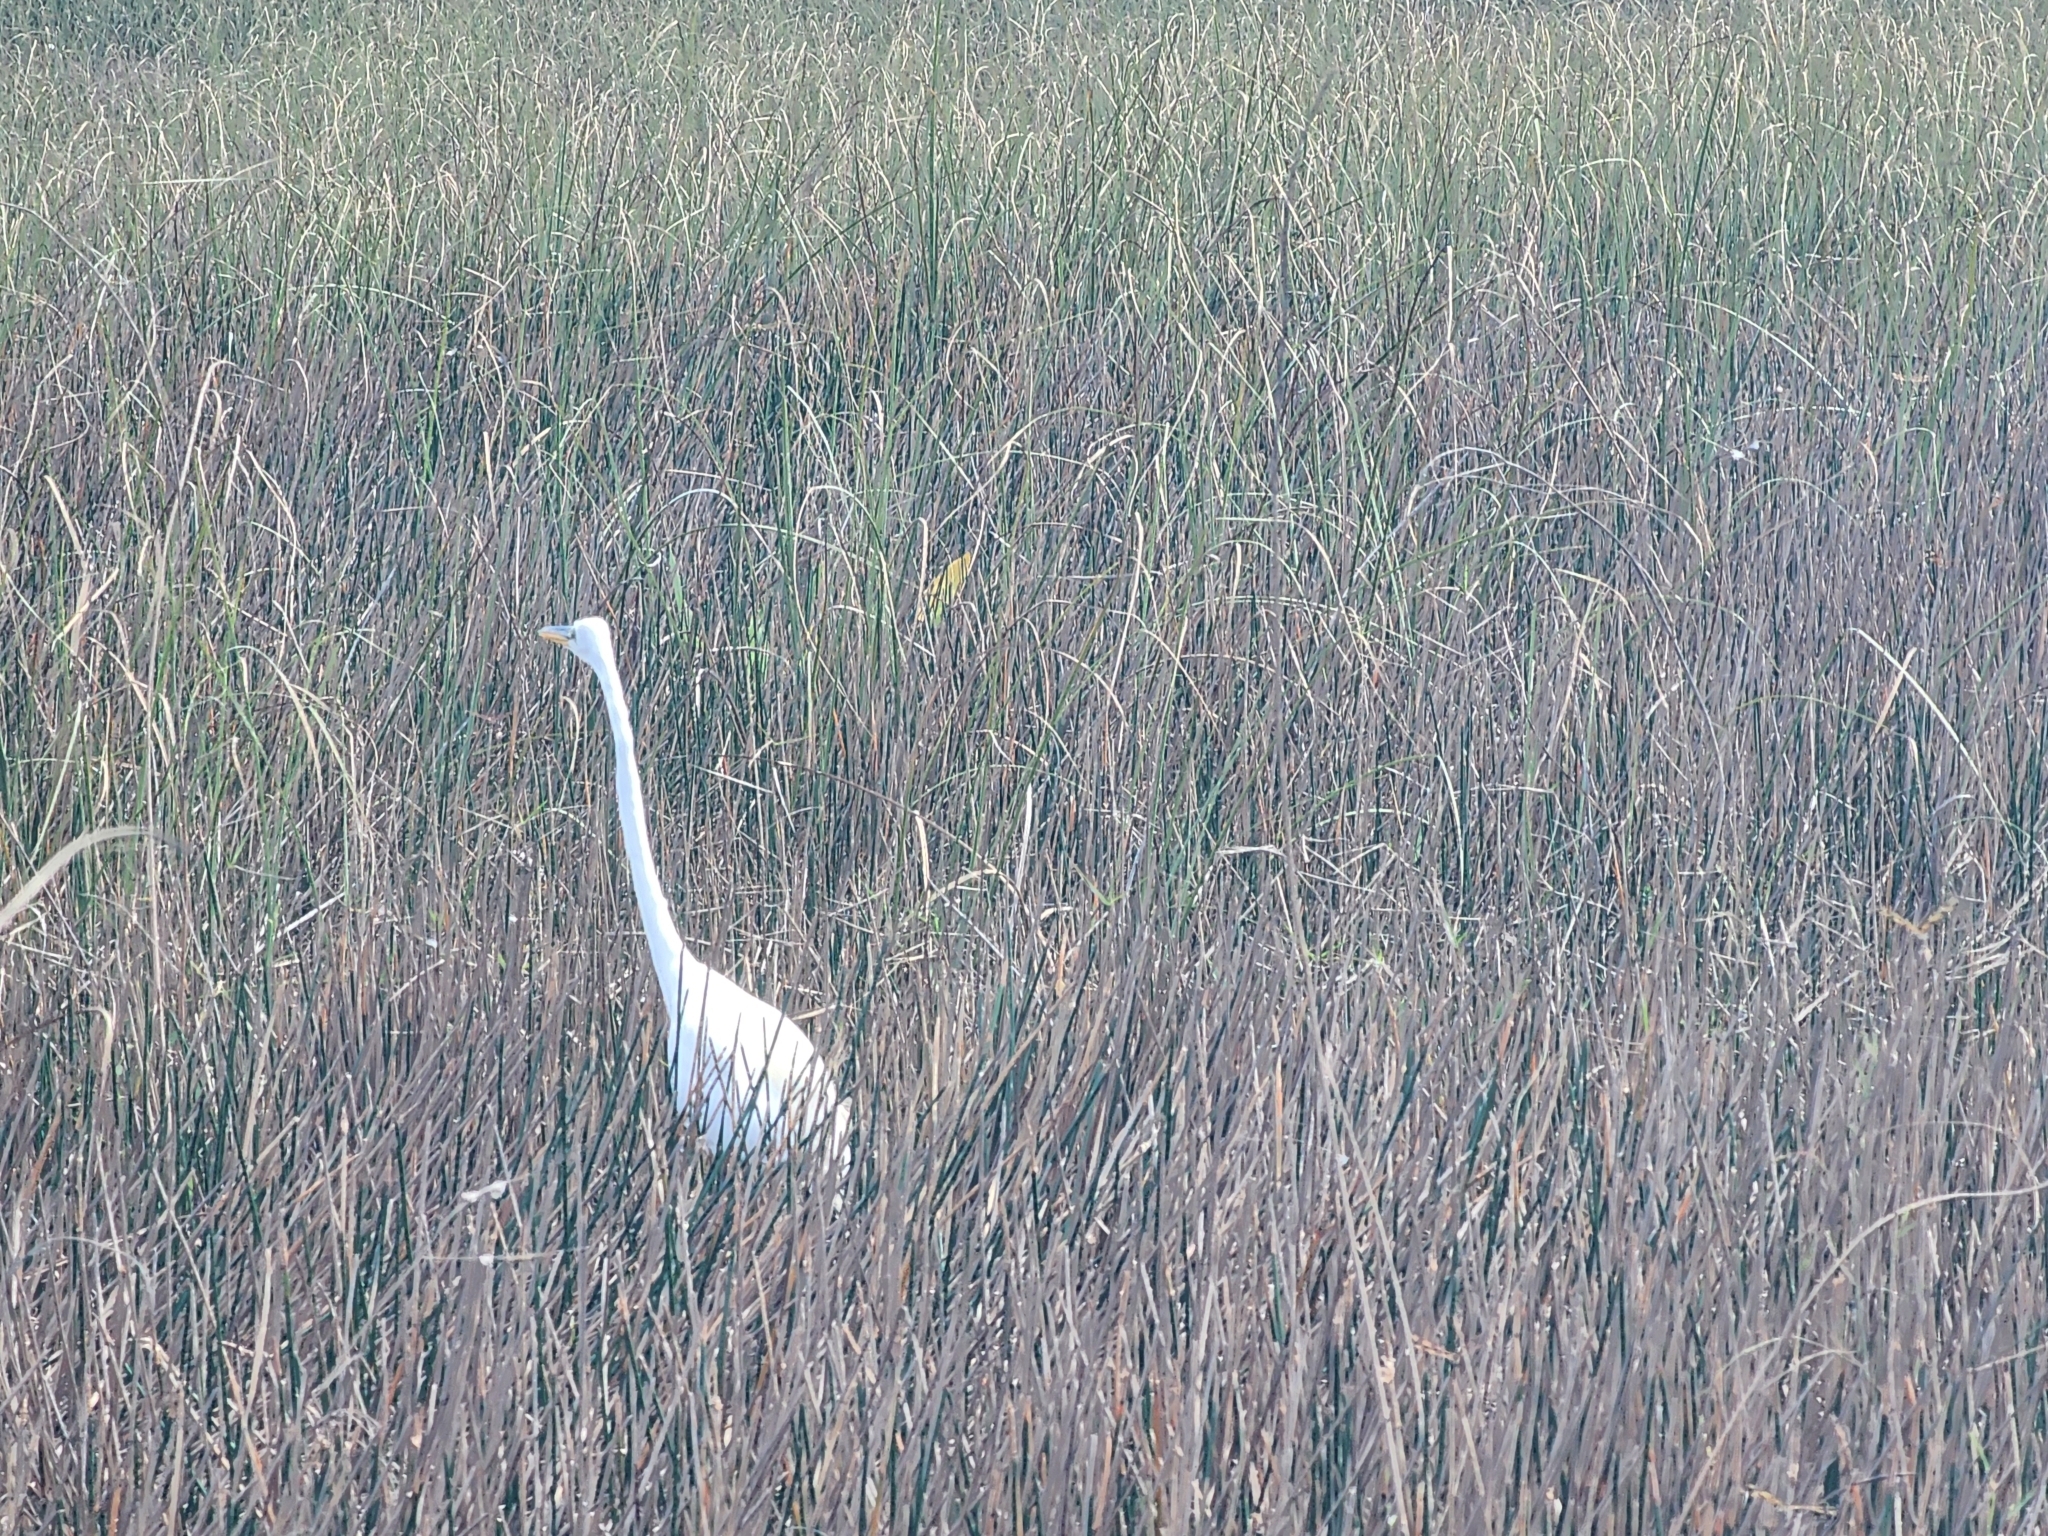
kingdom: Animalia
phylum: Chordata
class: Aves
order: Pelecaniformes
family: Ardeidae
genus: Ardea
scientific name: Ardea alba
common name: Great egret
